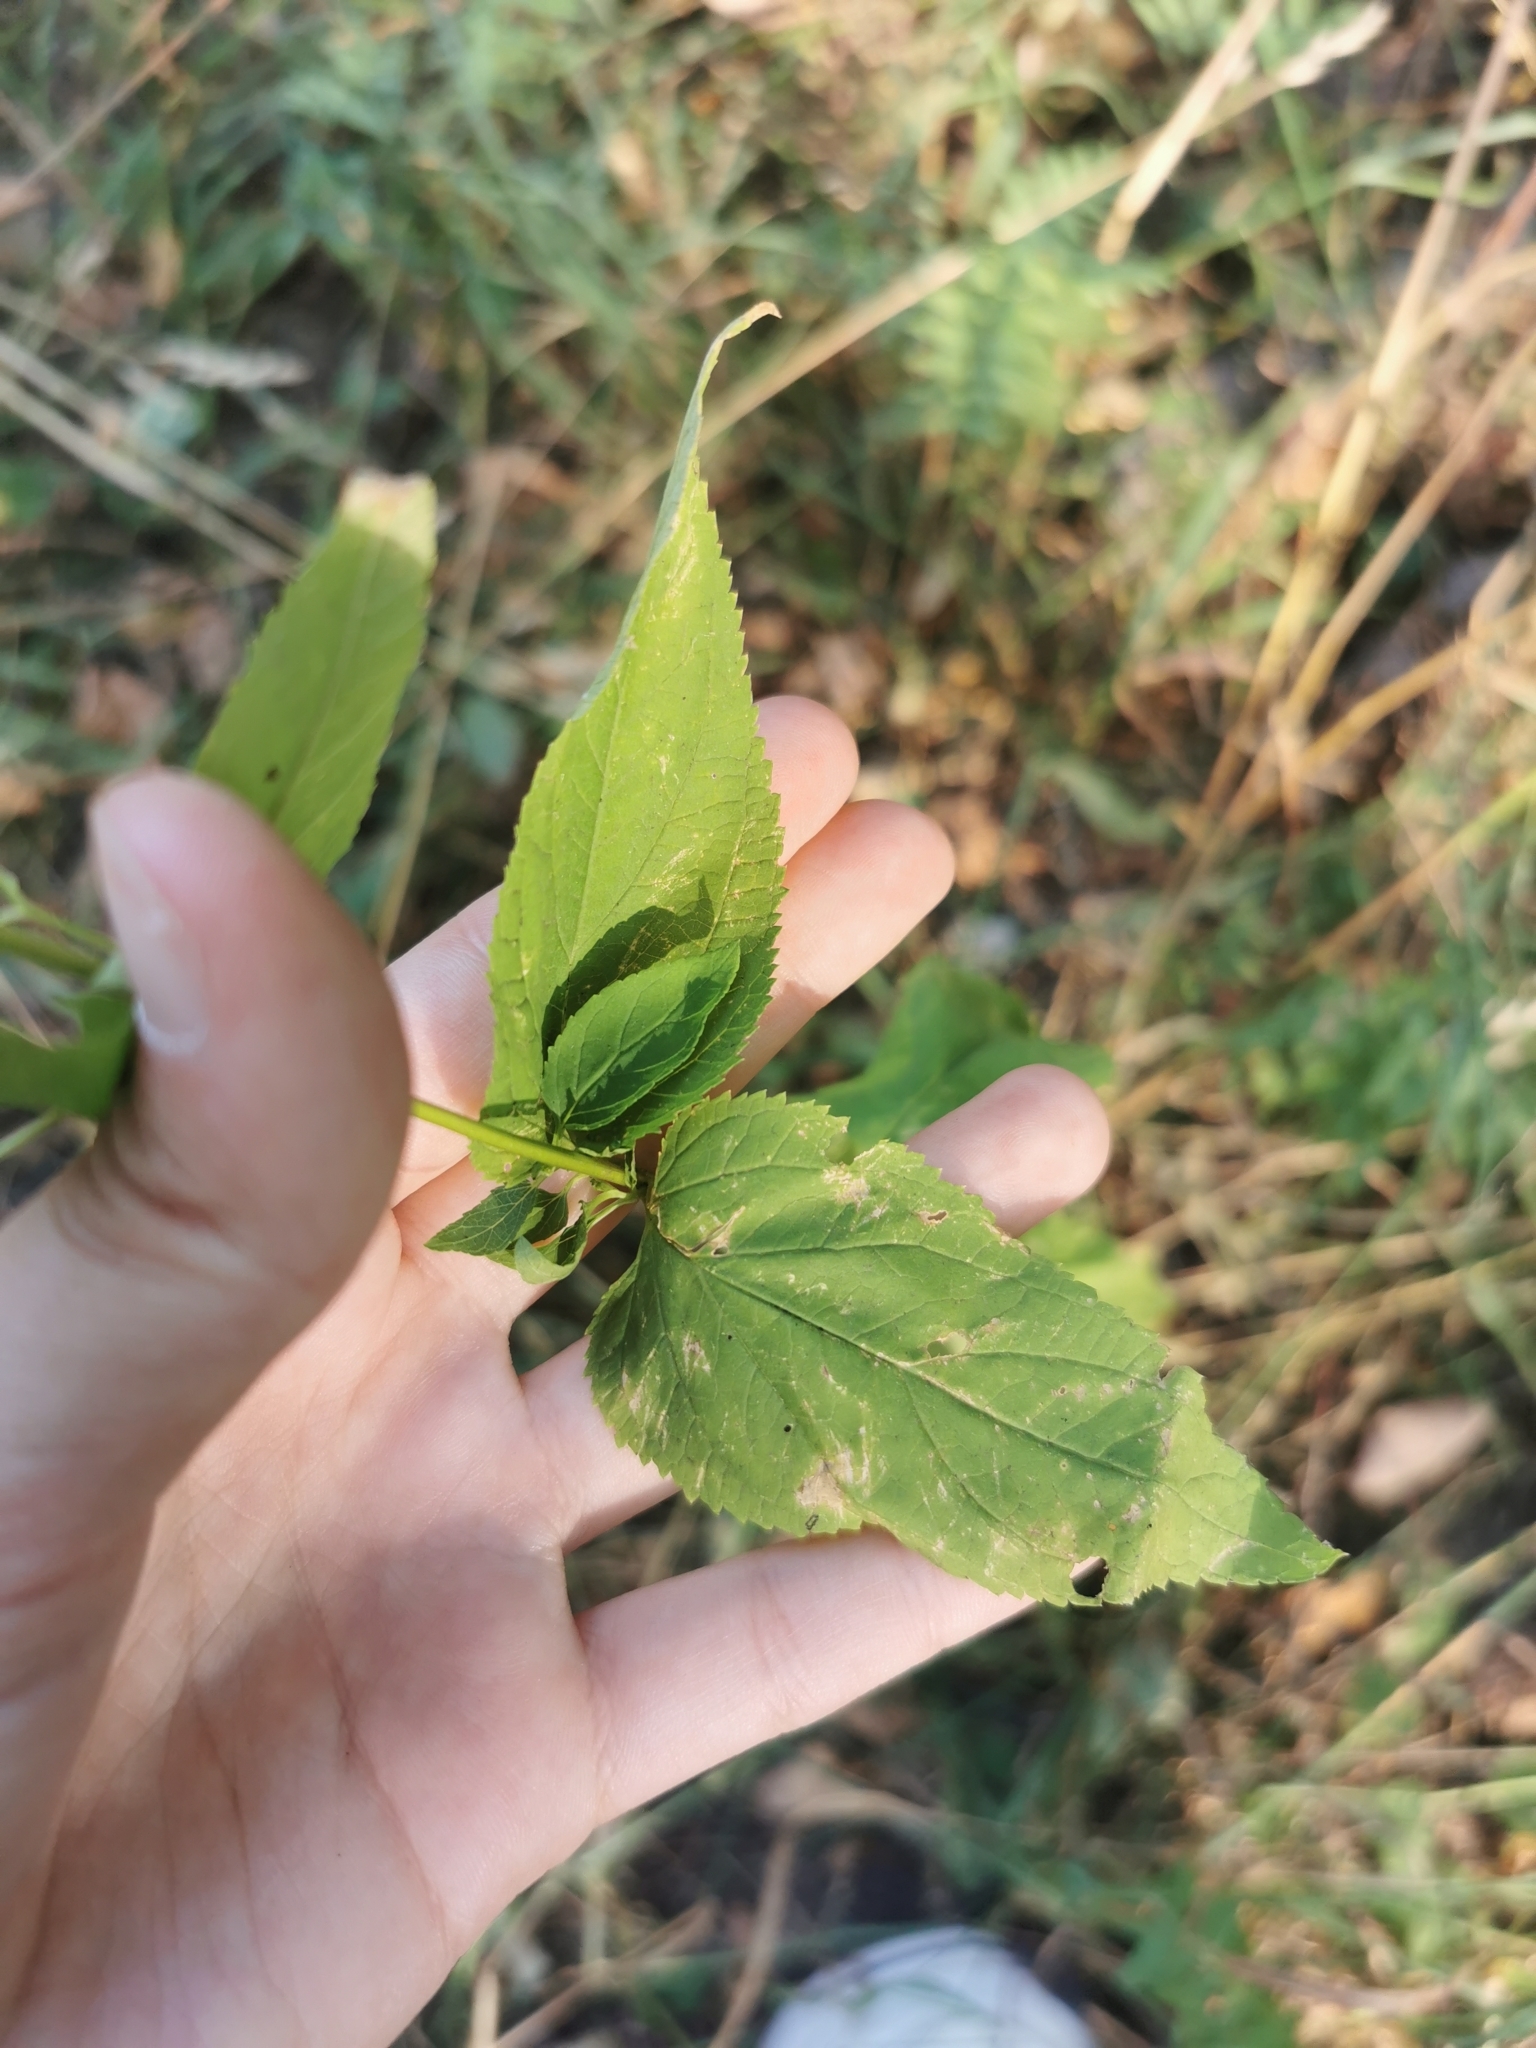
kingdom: Plantae
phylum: Tracheophyta
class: Magnoliopsida
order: Lamiales
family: Scrophulariaceae
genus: Scrophularia
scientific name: Scrophularia nodosa
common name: Common figwort
